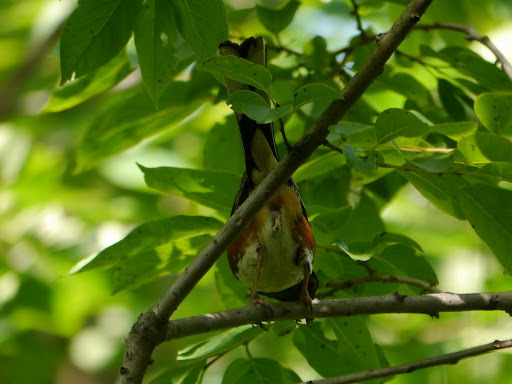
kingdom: Animalia
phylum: Chordata
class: Aves
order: Passeriformes
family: Passerellidae
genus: Pipilo
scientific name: Pipilo erythrophthalmus
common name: Eastern towhee
